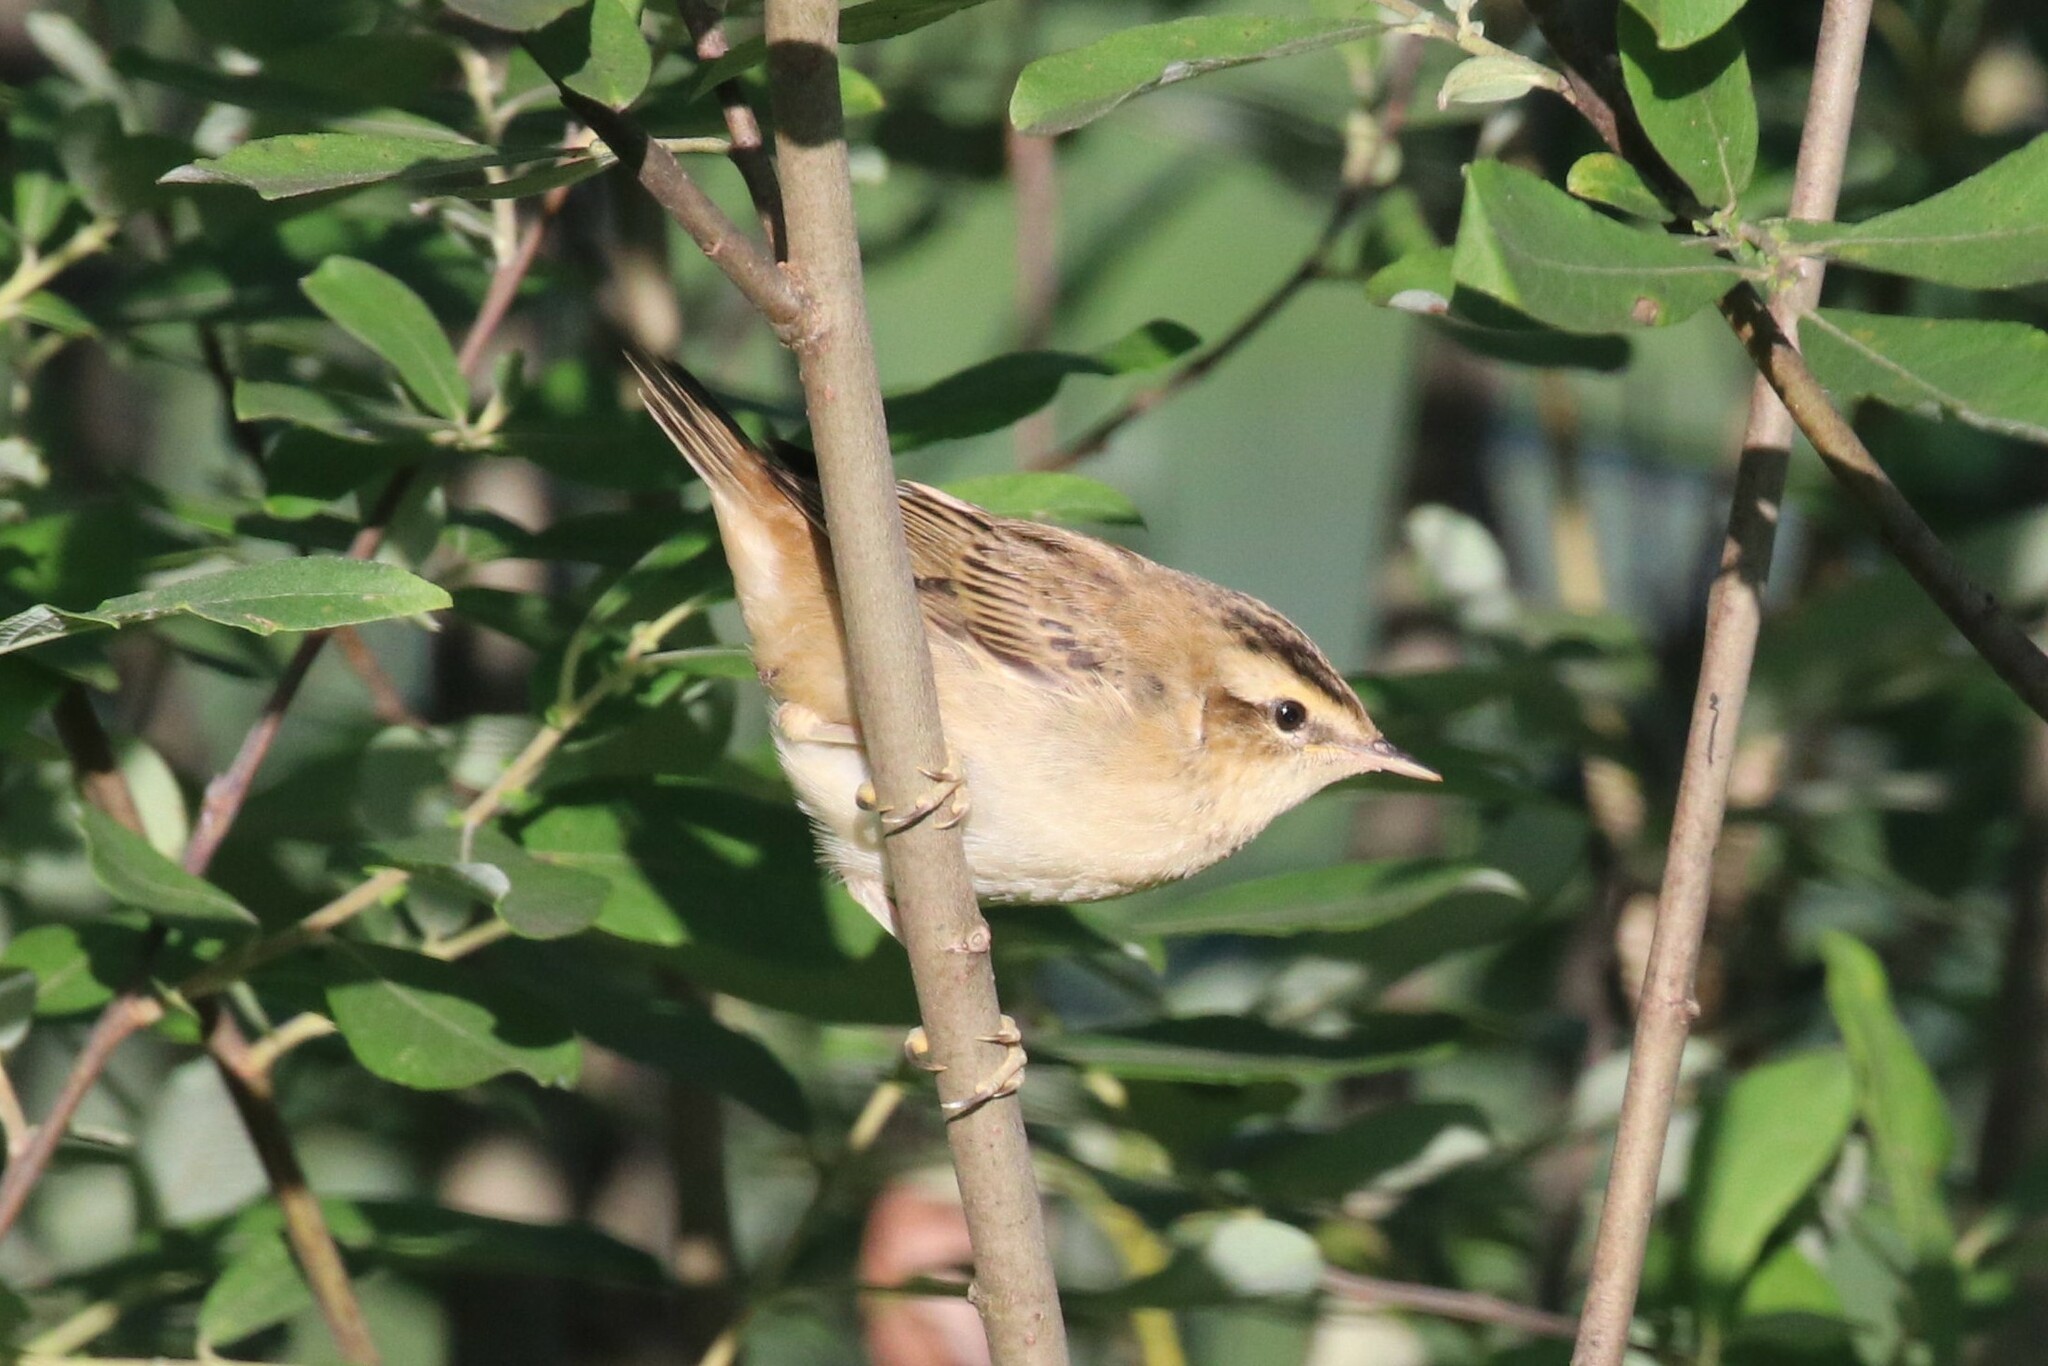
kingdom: Animalia
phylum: Chordata
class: Aves
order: Passeriformes
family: Acrocephalidae
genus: Acrocephalus
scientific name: Acrocephalus schoenobaenus
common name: Sedge warbler
